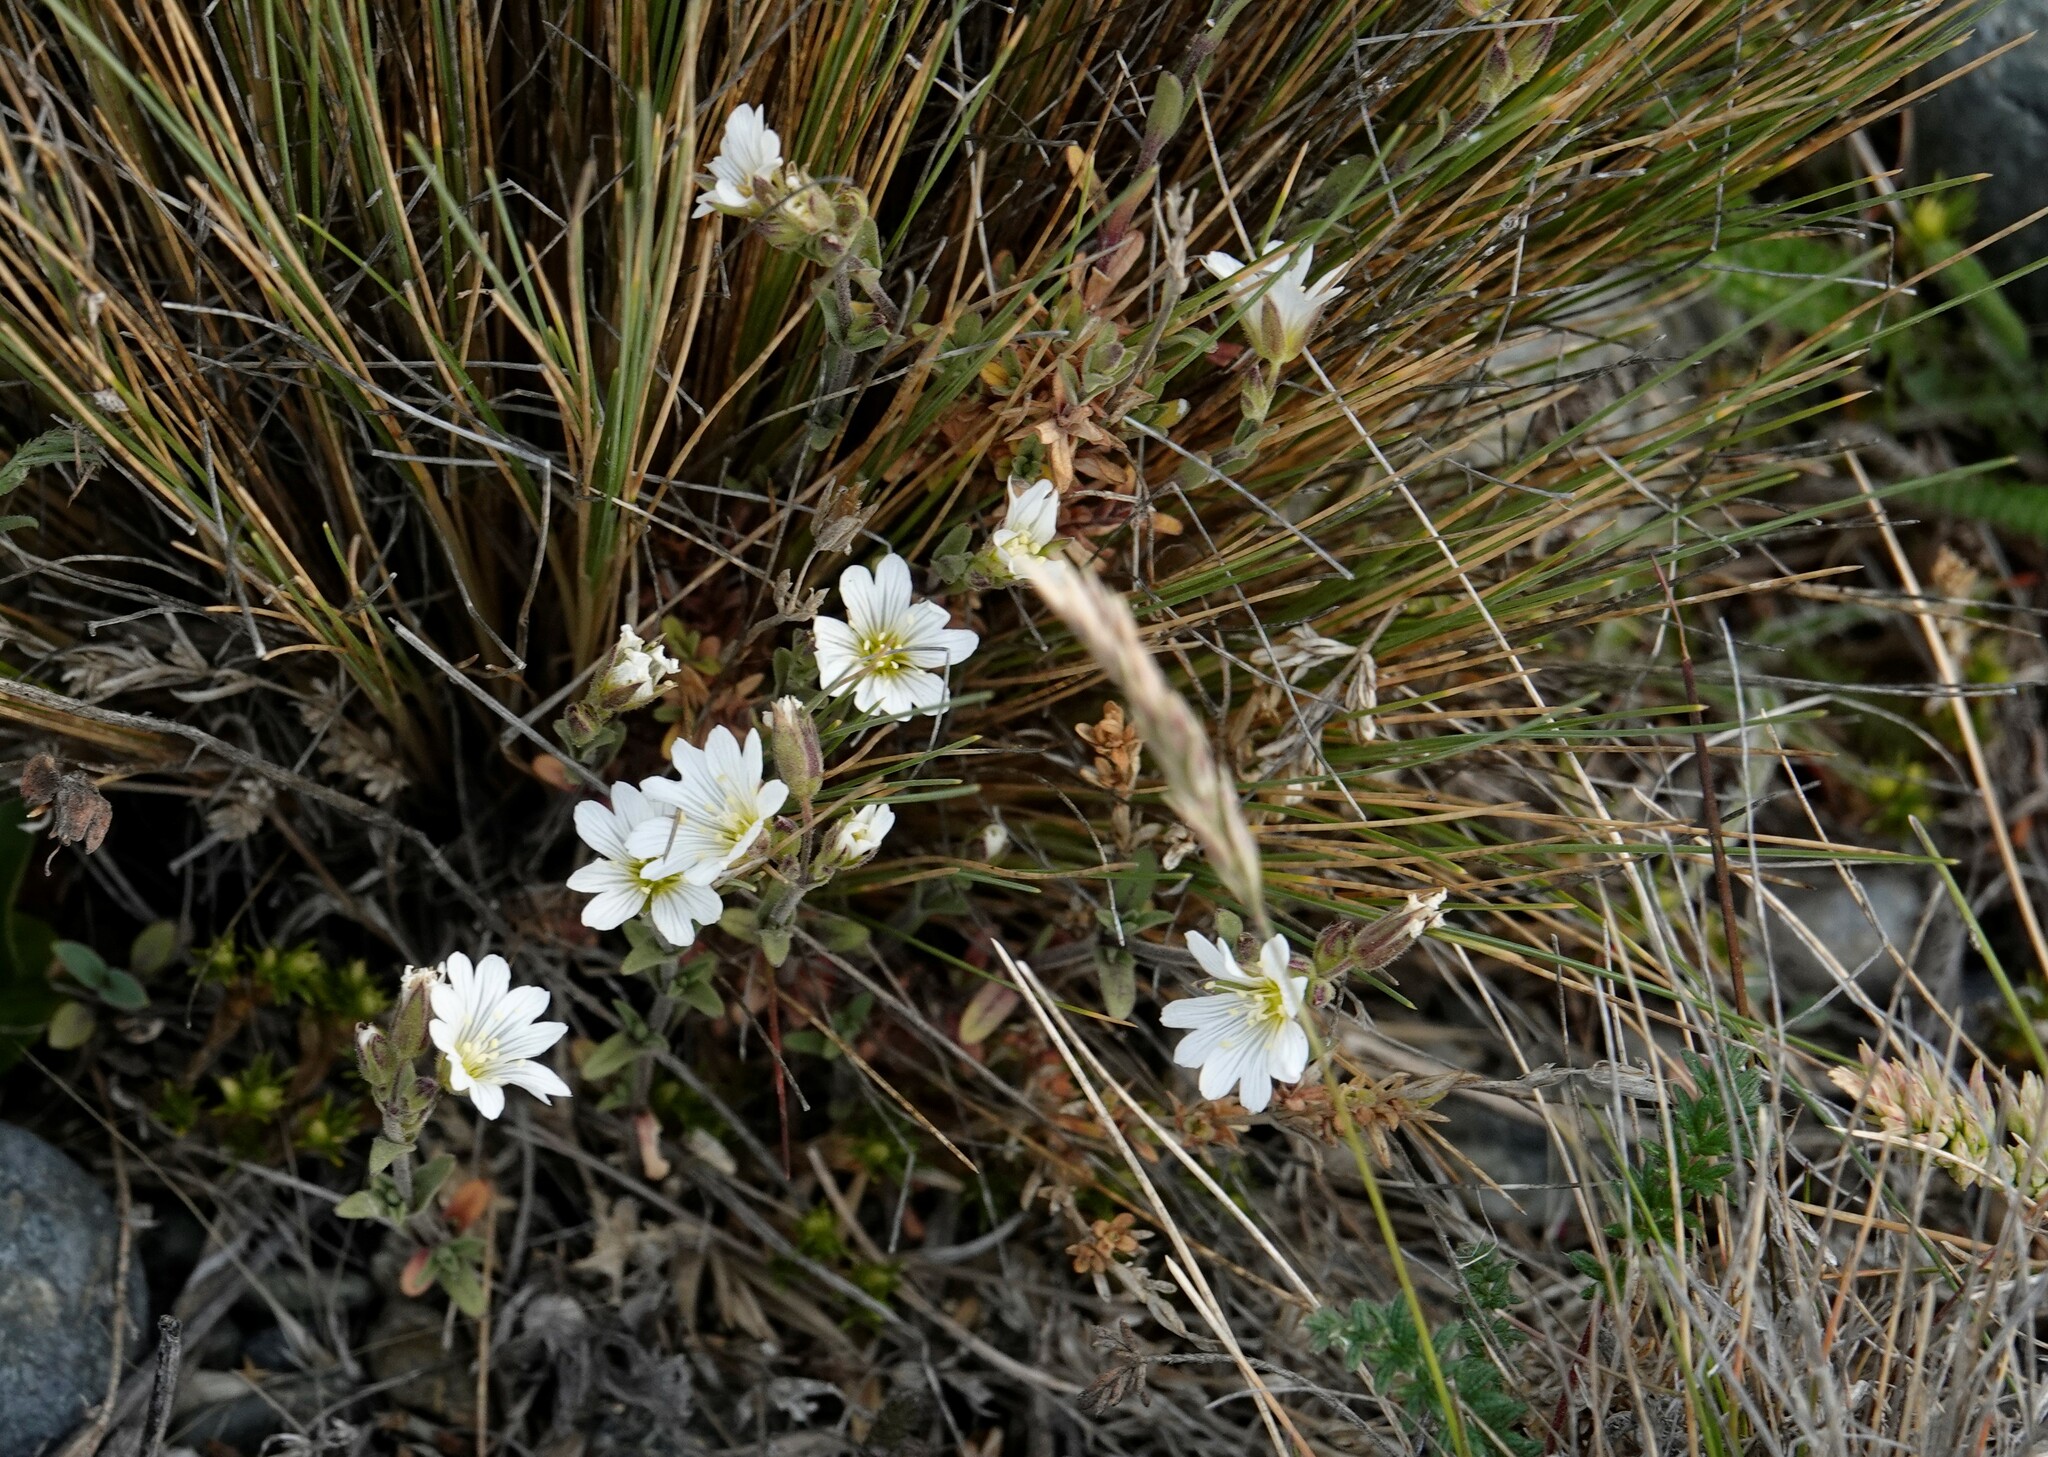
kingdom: Plantae
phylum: Tracheophyta
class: Magnoliopsida
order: Caryophyllales
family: Caryophyllaceae
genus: Cerastium
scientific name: Cerastium arvense
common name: Field mouse-ear
